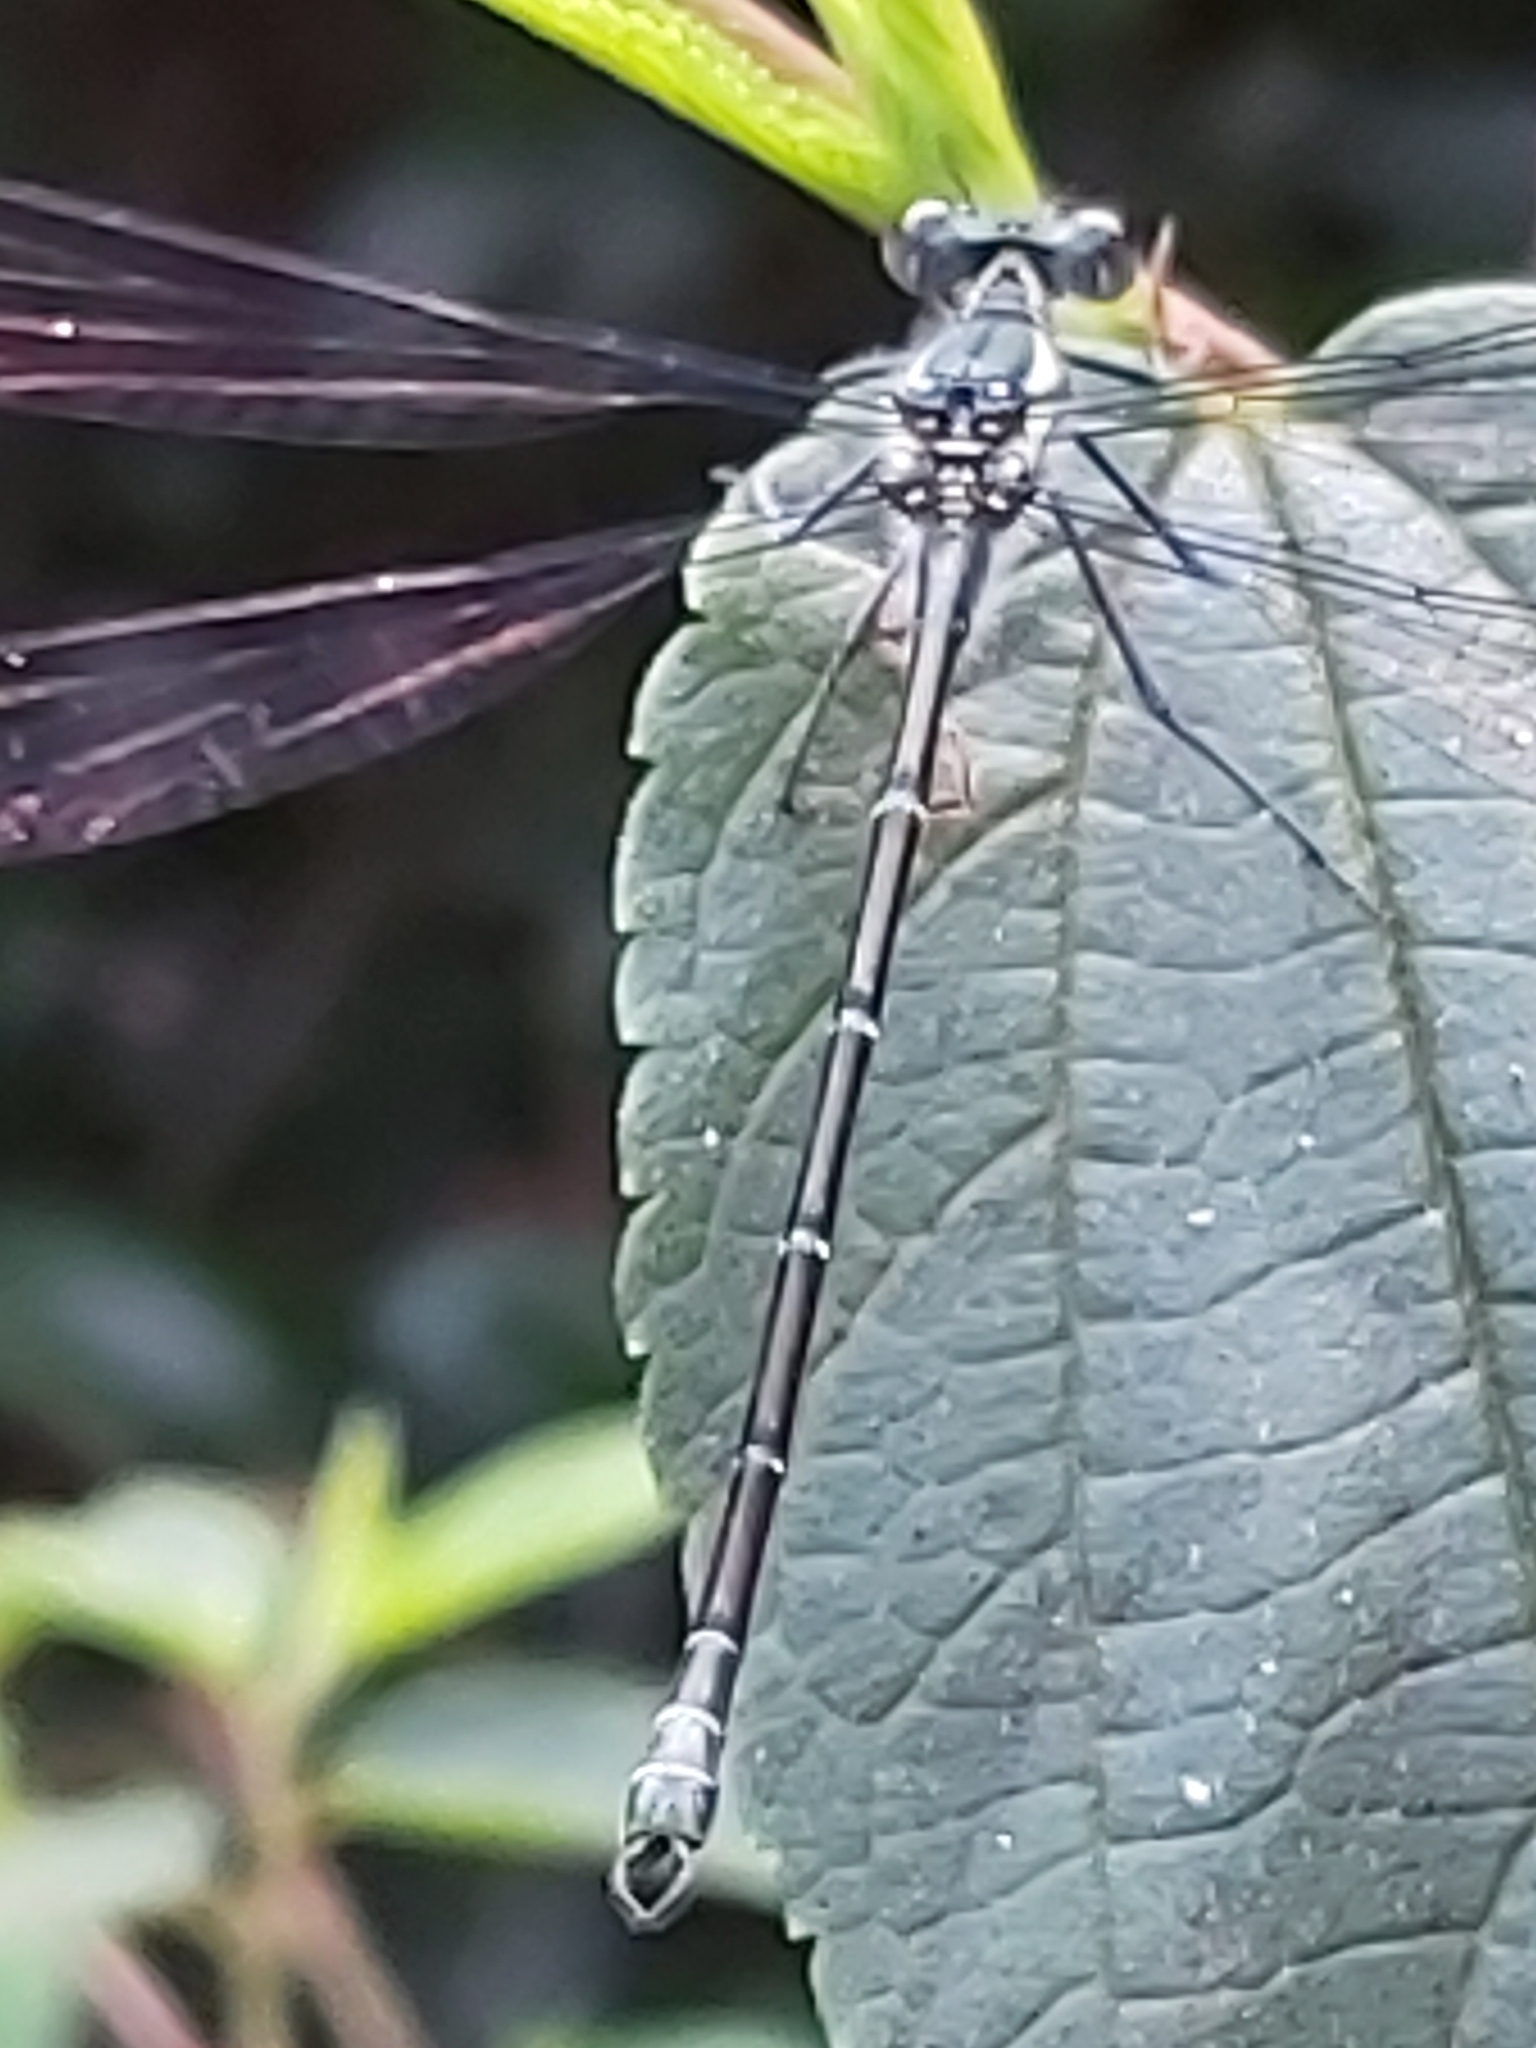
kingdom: Animalia
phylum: Arthropoda
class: Insecta
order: Odonata
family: Argiolestidae
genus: Austroargiolestes
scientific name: Austroargiolestes isabellae
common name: Sydney flatwing
